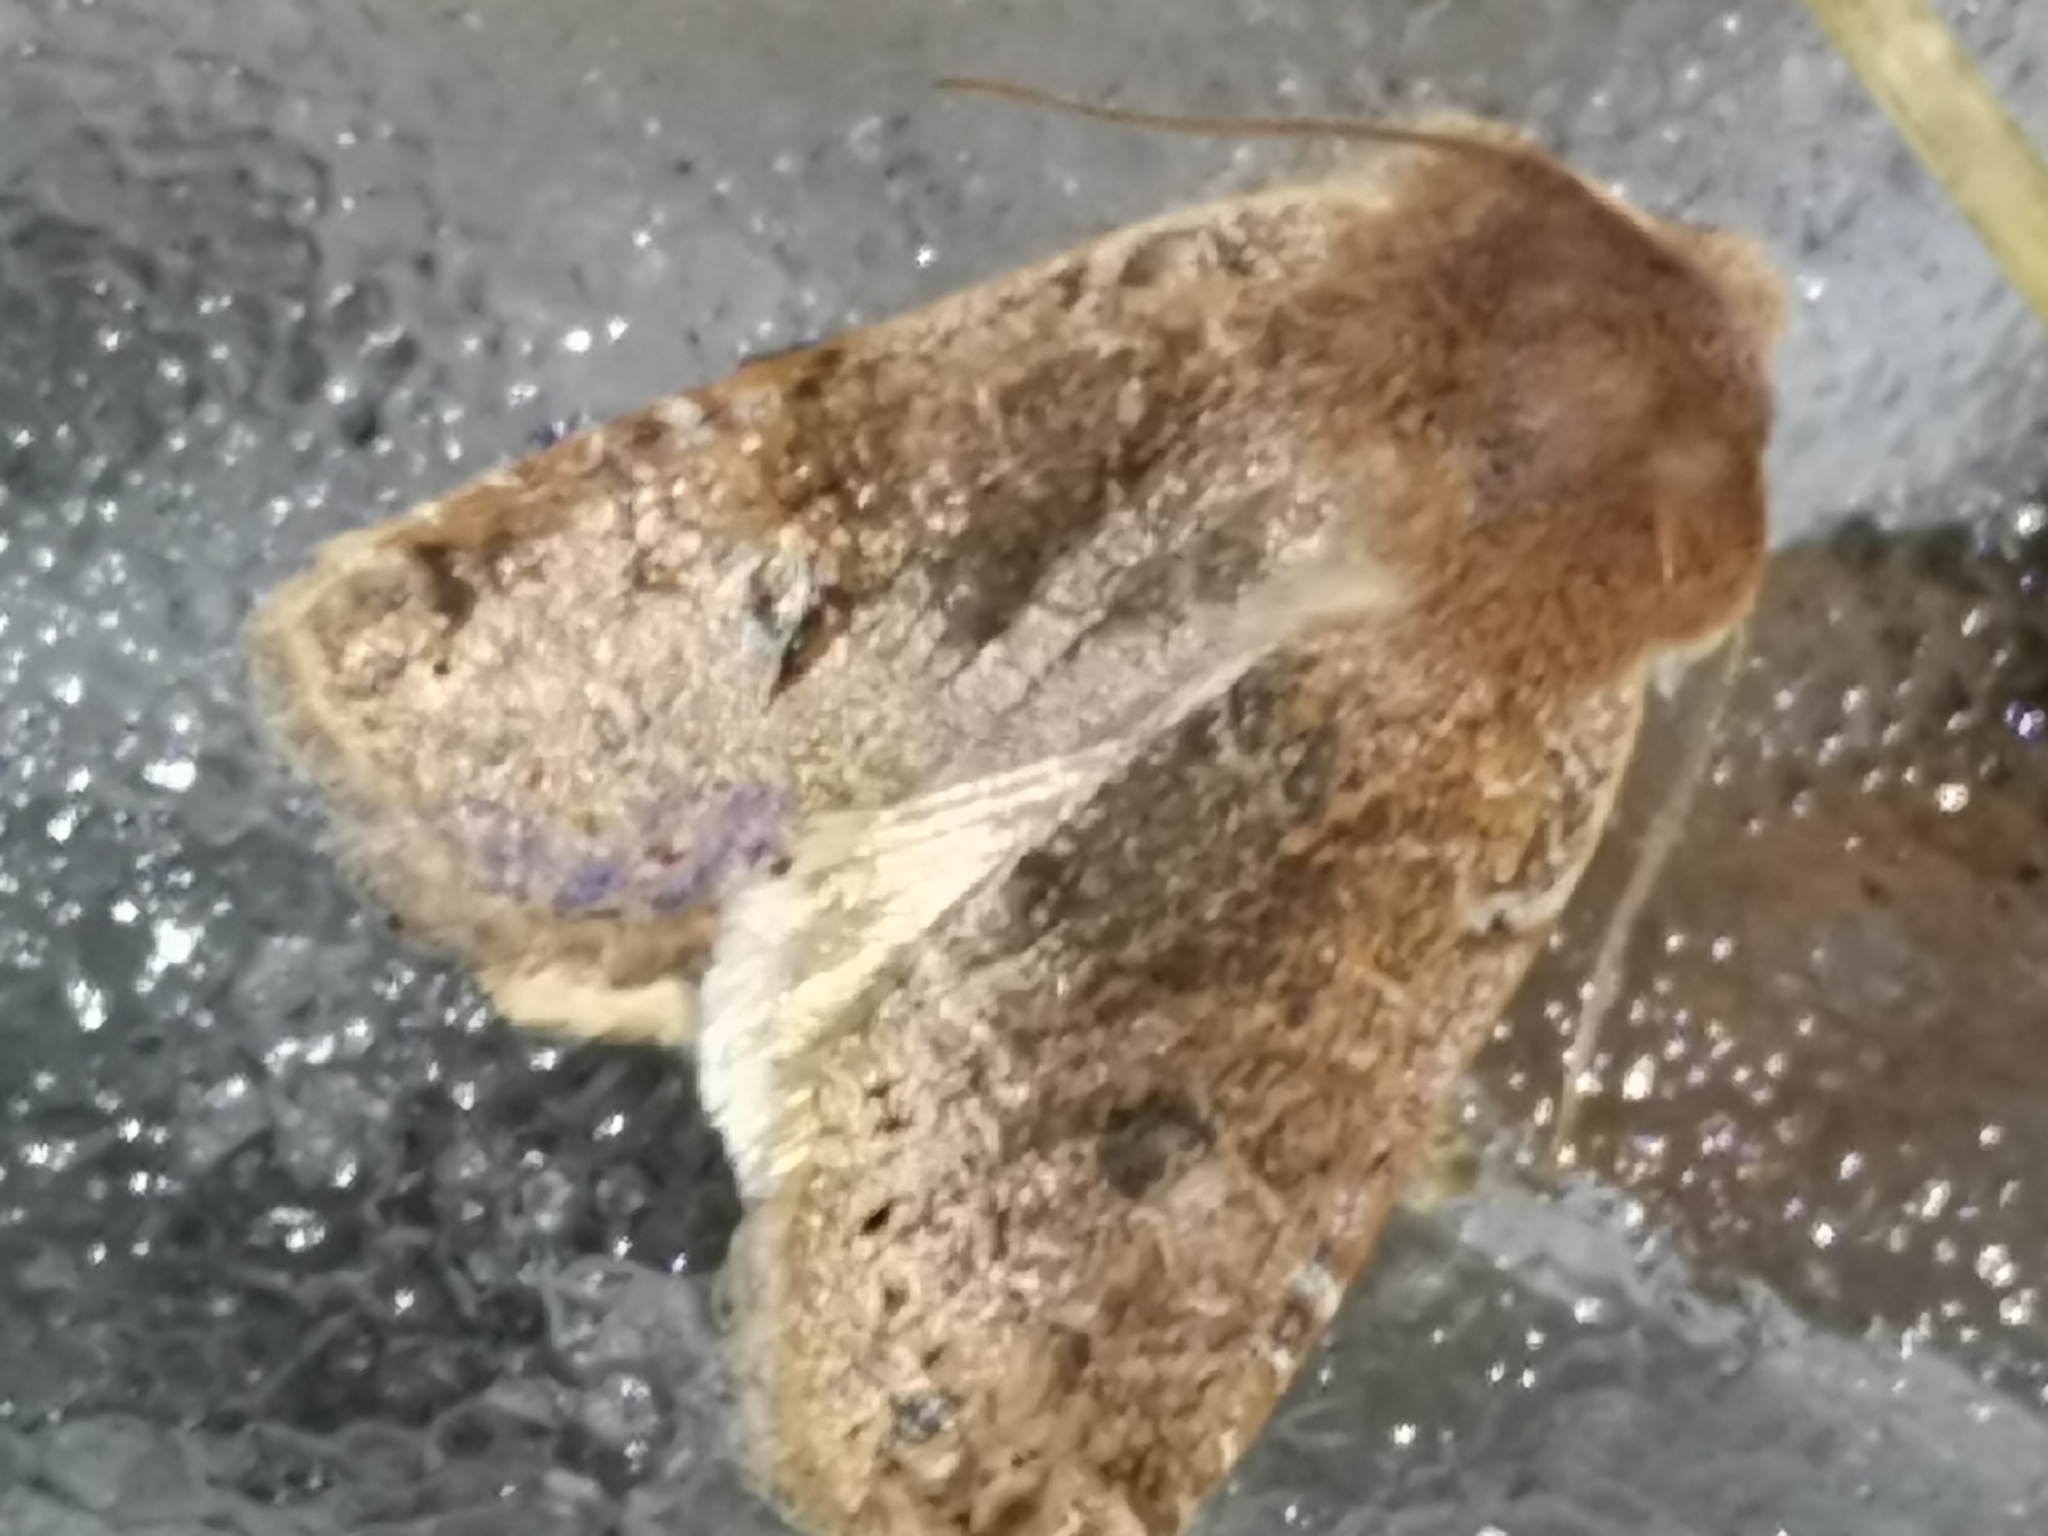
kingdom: Animalia
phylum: Arthropoda
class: Insecta
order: Lepidoptera
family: Noctuidae
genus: Conistra
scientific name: Conistra vaccinii
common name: Chestnut
